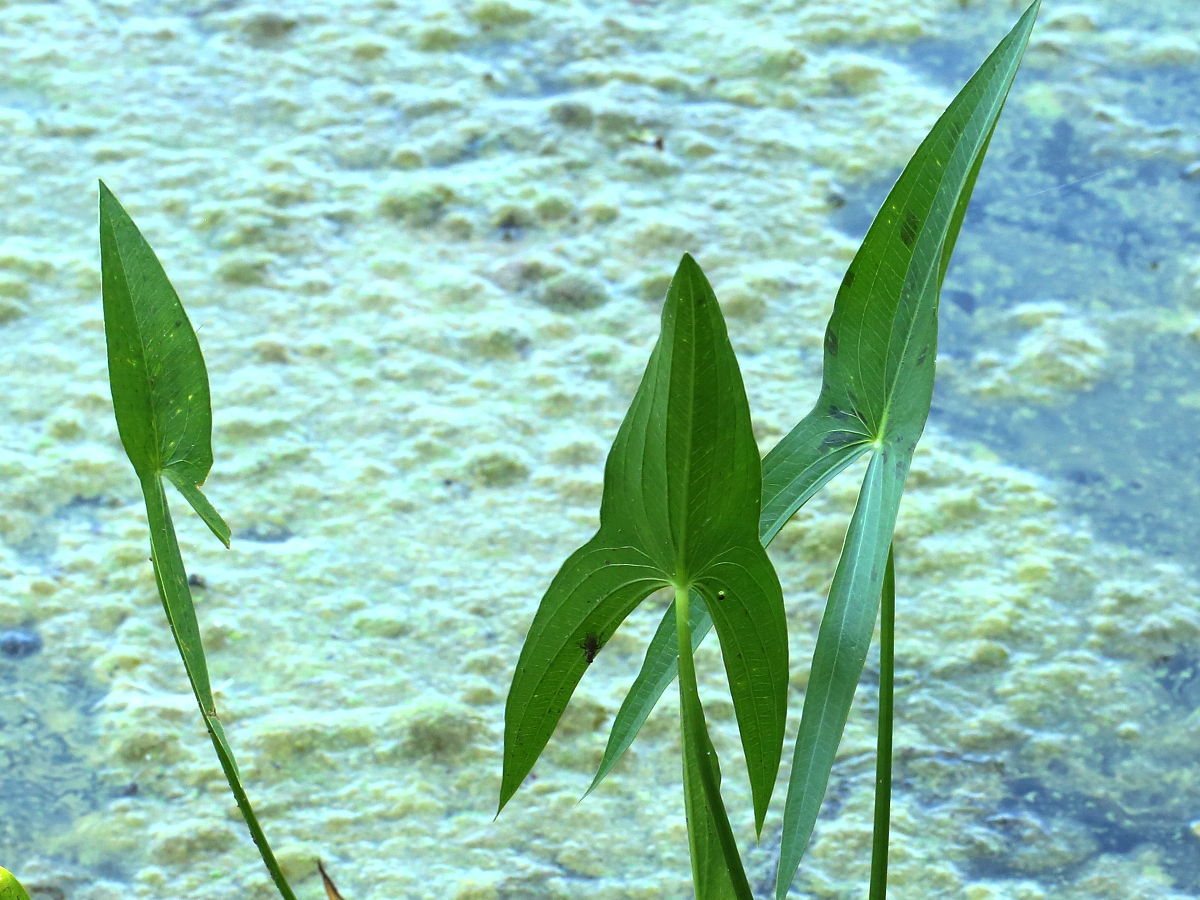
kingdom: Plantae
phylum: Tracheophyta
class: Liliopsida
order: Alismatales
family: Alismataceae
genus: Sagittaria
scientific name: Sagittaria
